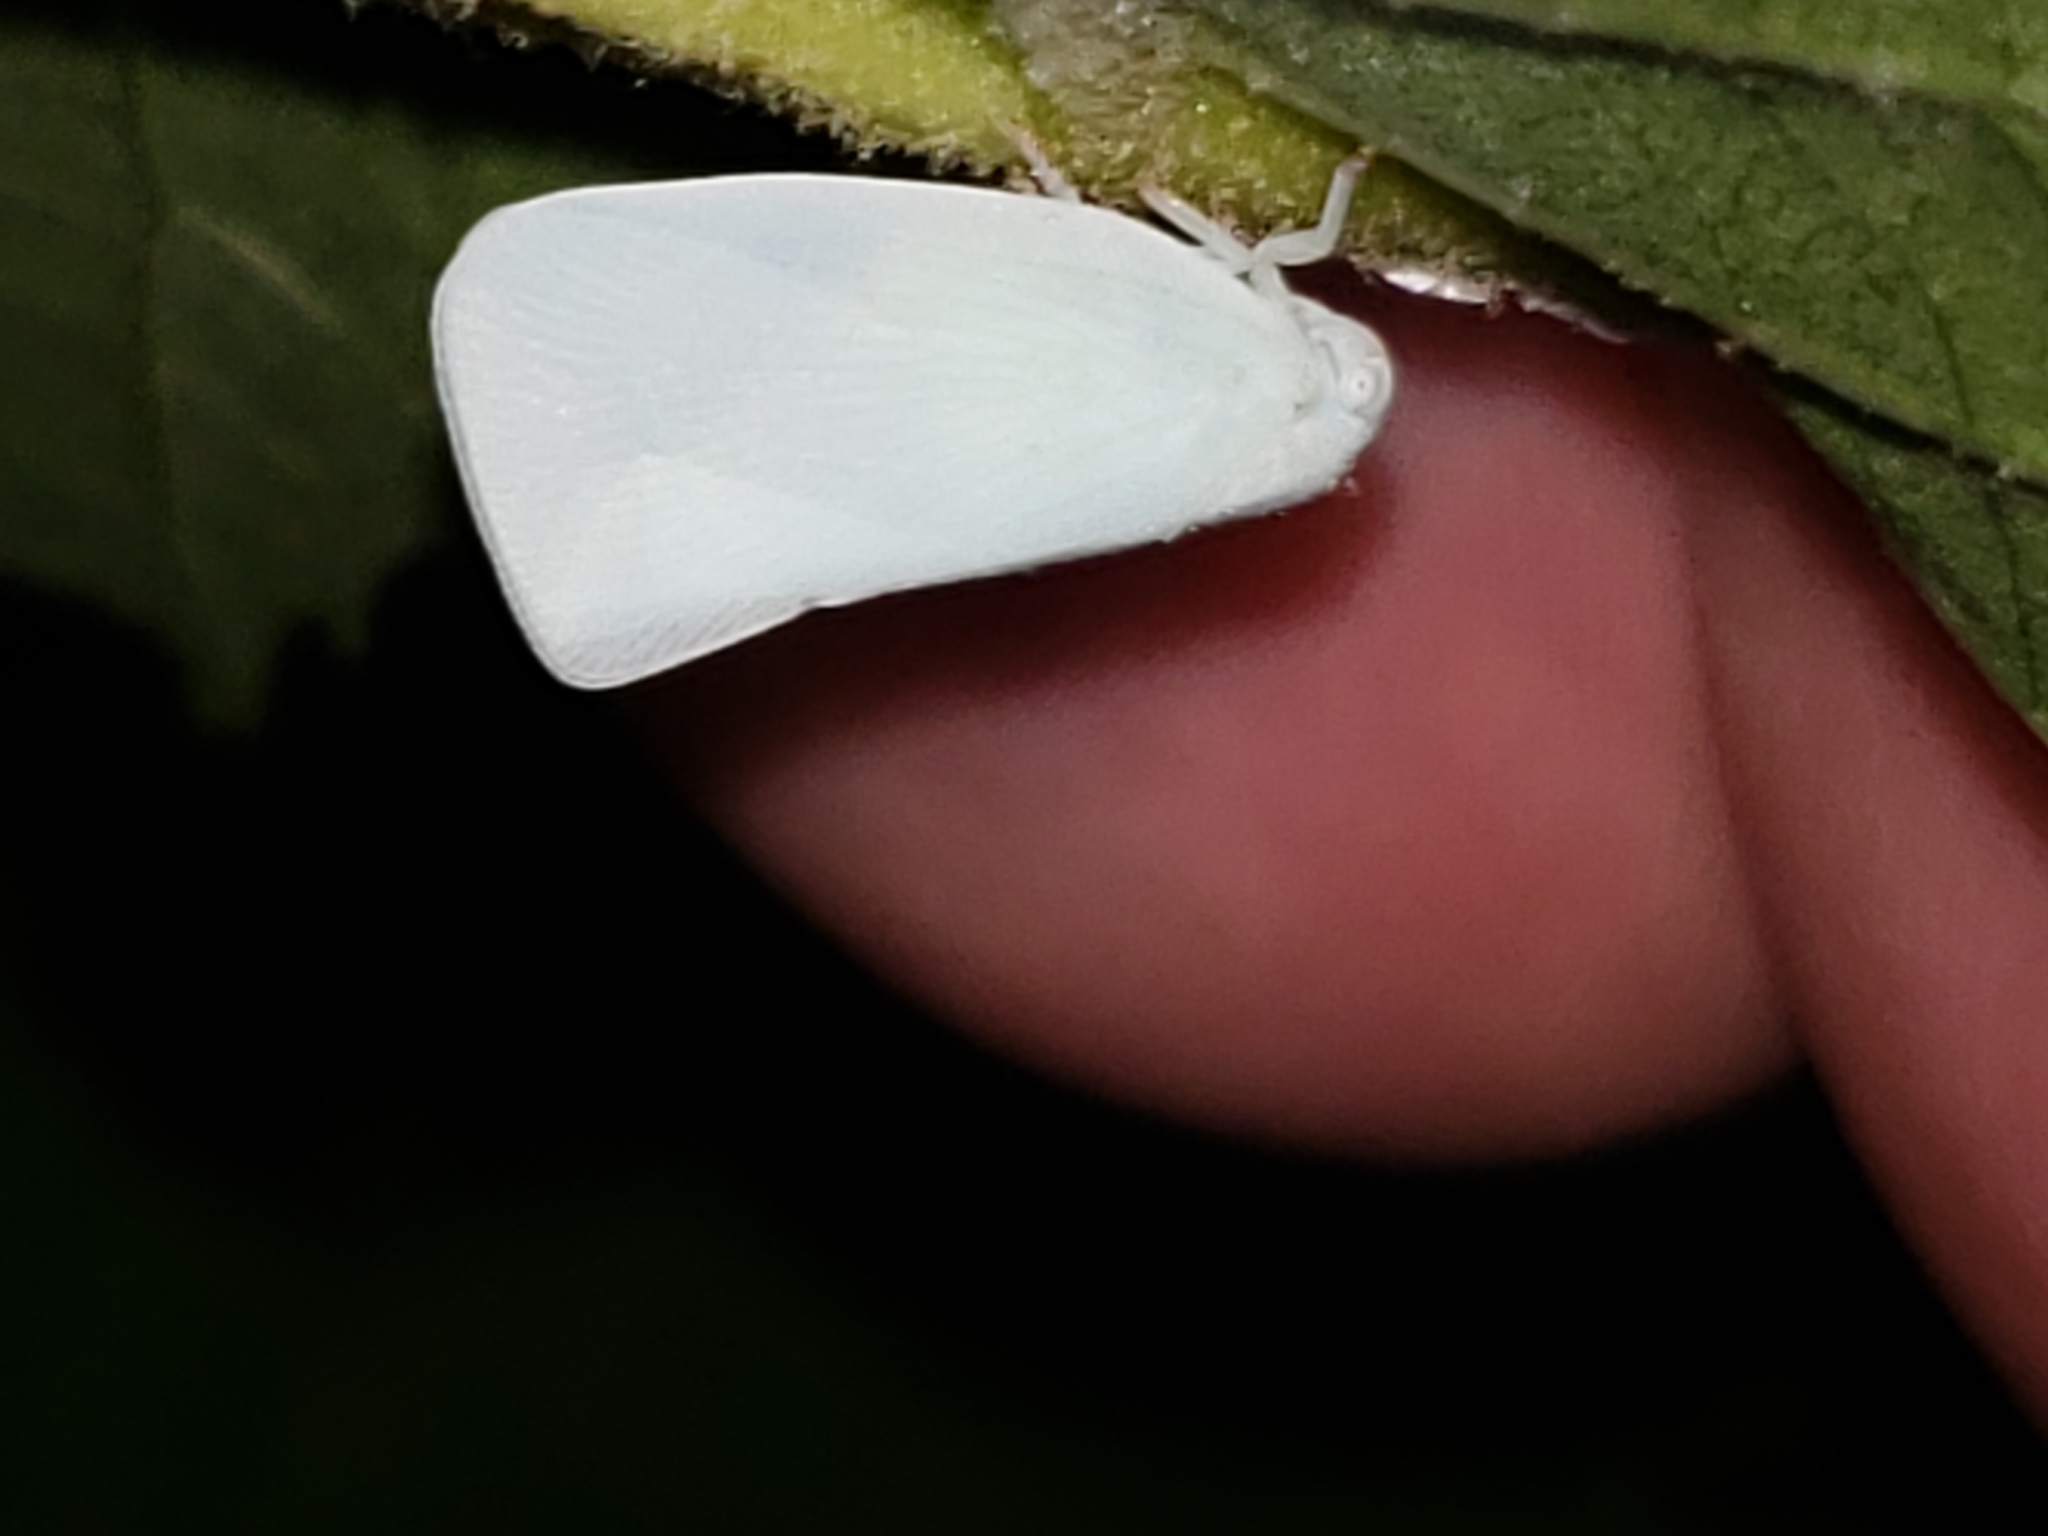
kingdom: Animalia
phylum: Arthropoda
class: Insecta
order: Hemiptera
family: Flatidae
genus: Flatormenis
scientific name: Flatormenis proxima
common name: Northern flatid planthopper
